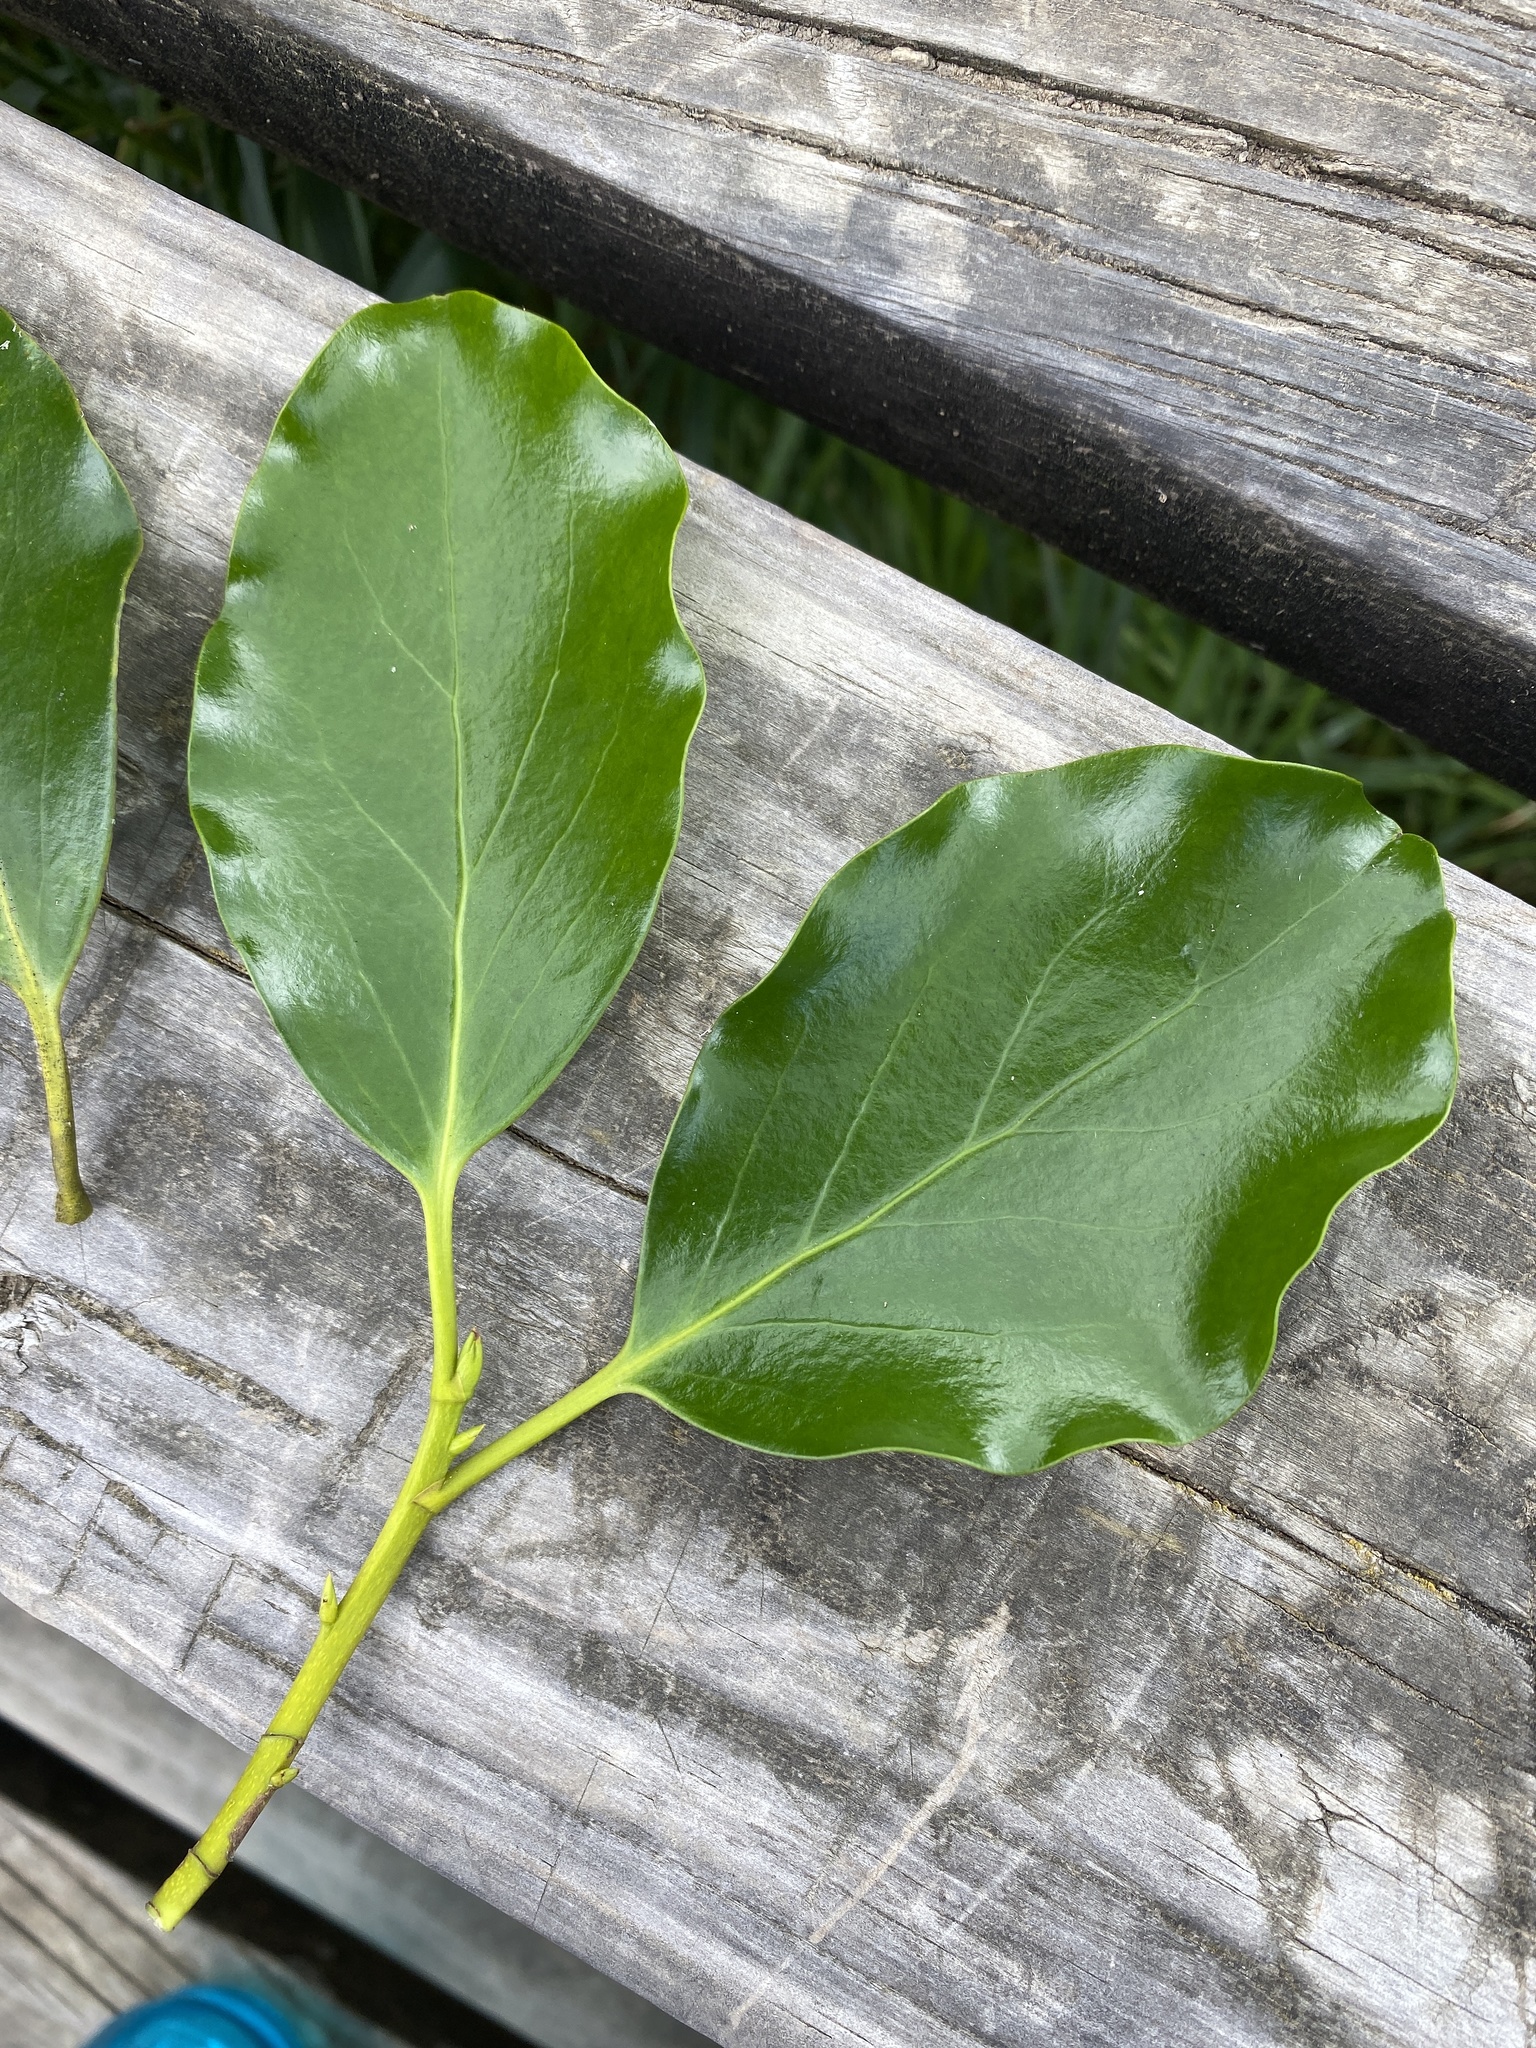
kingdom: Plantae
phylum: Tracheophyta
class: Magnoliopsida
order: Apiales
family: Griseliniaceae
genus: Griselinia
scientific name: Griselinia littoralis
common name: New zealand broadleaf
